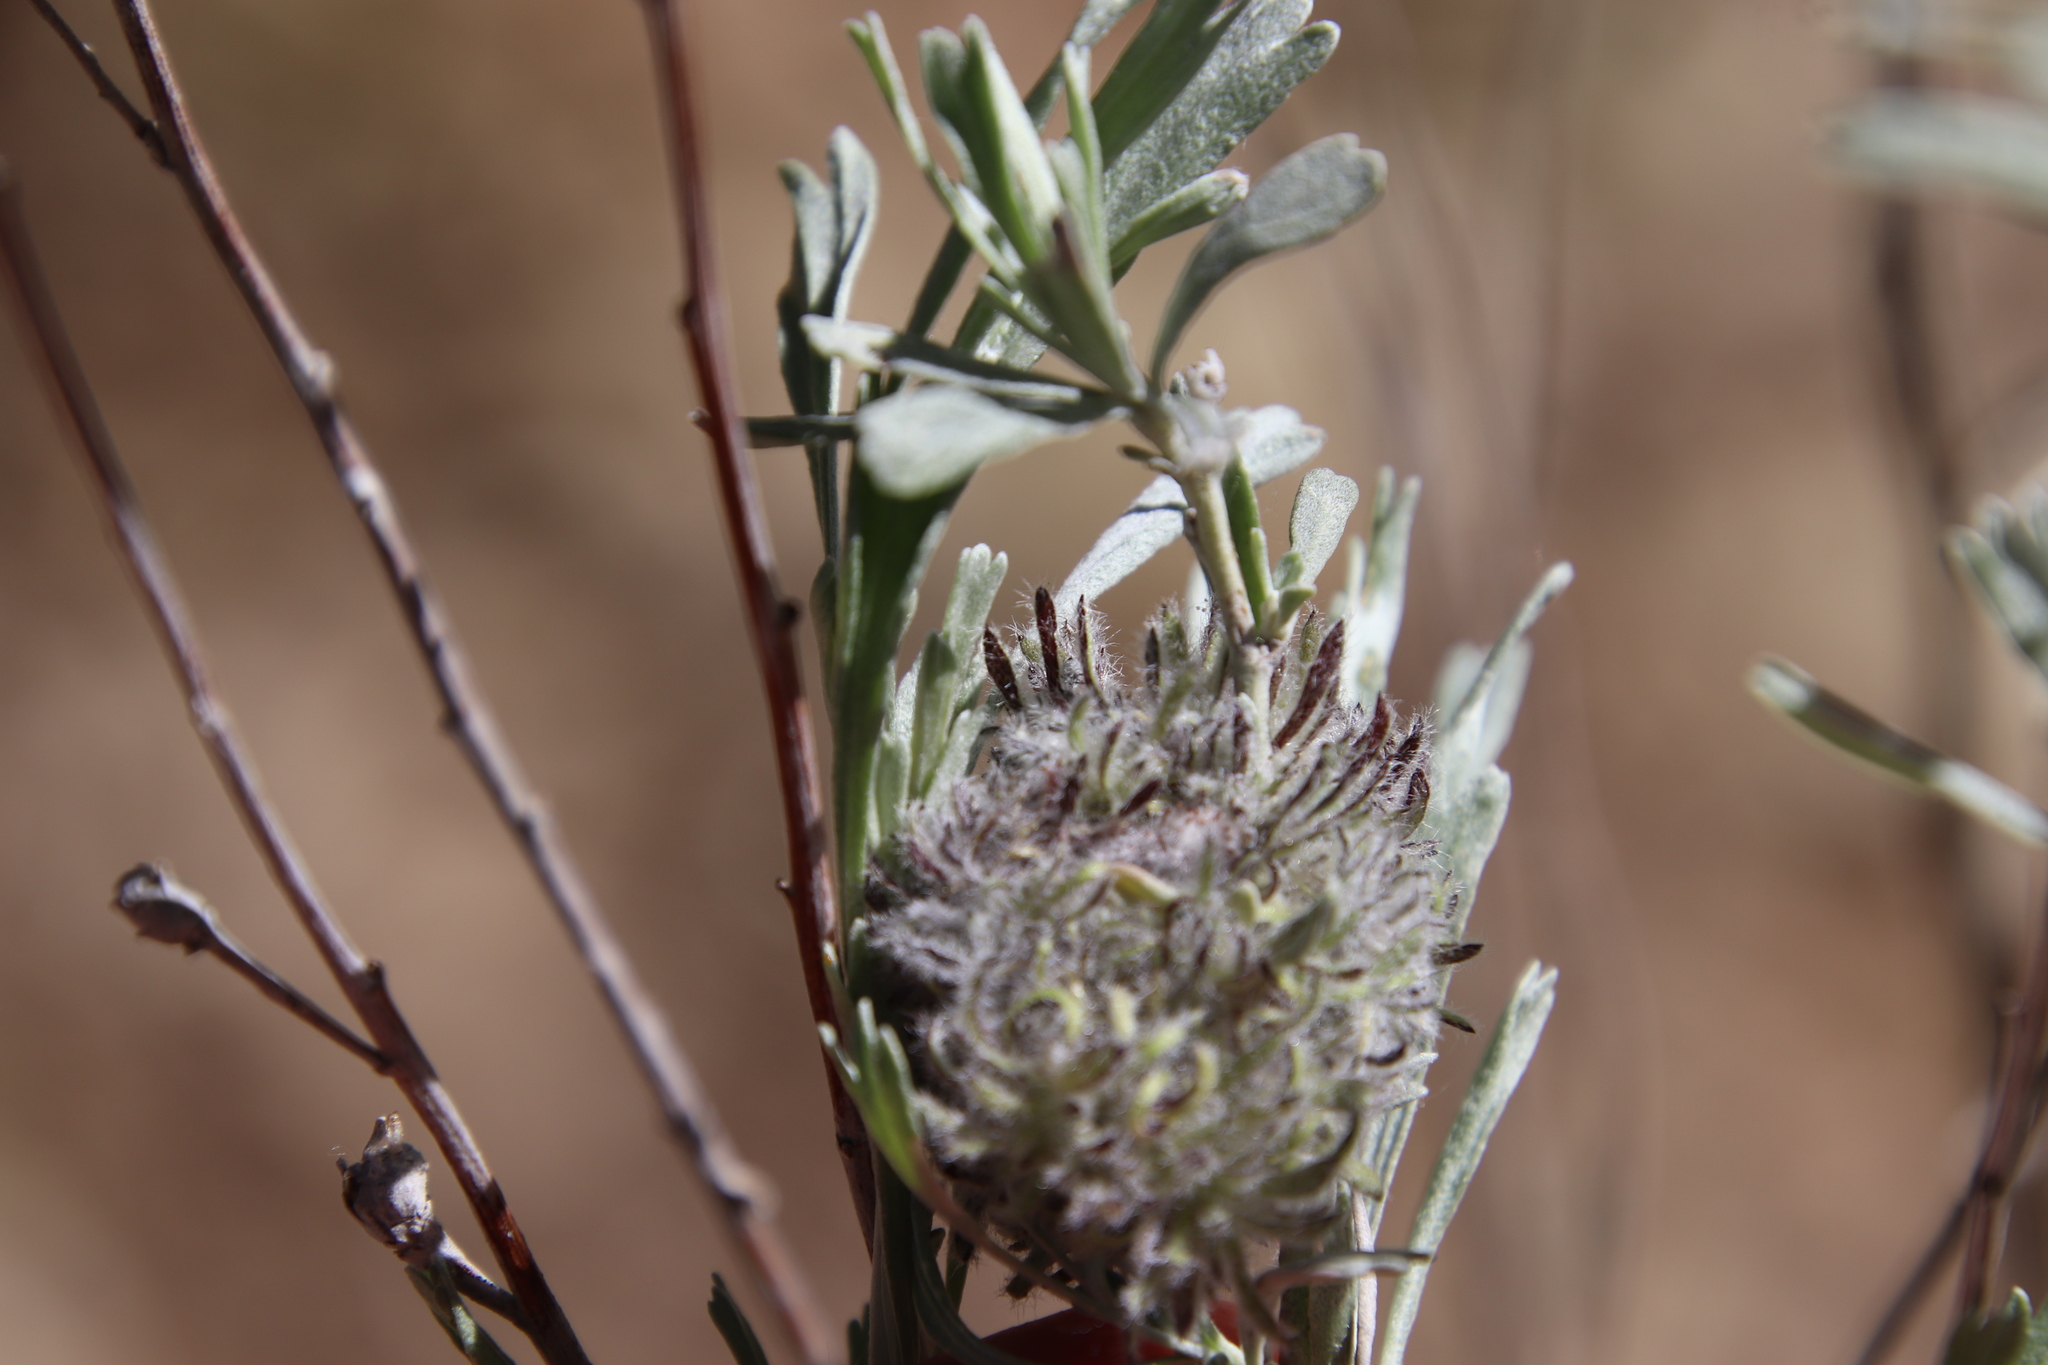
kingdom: Plantae
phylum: Tracheophyta
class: Magnoliopsida
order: Asterales
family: Asteraceae
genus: Artemisia
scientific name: Artemisia tridentata
